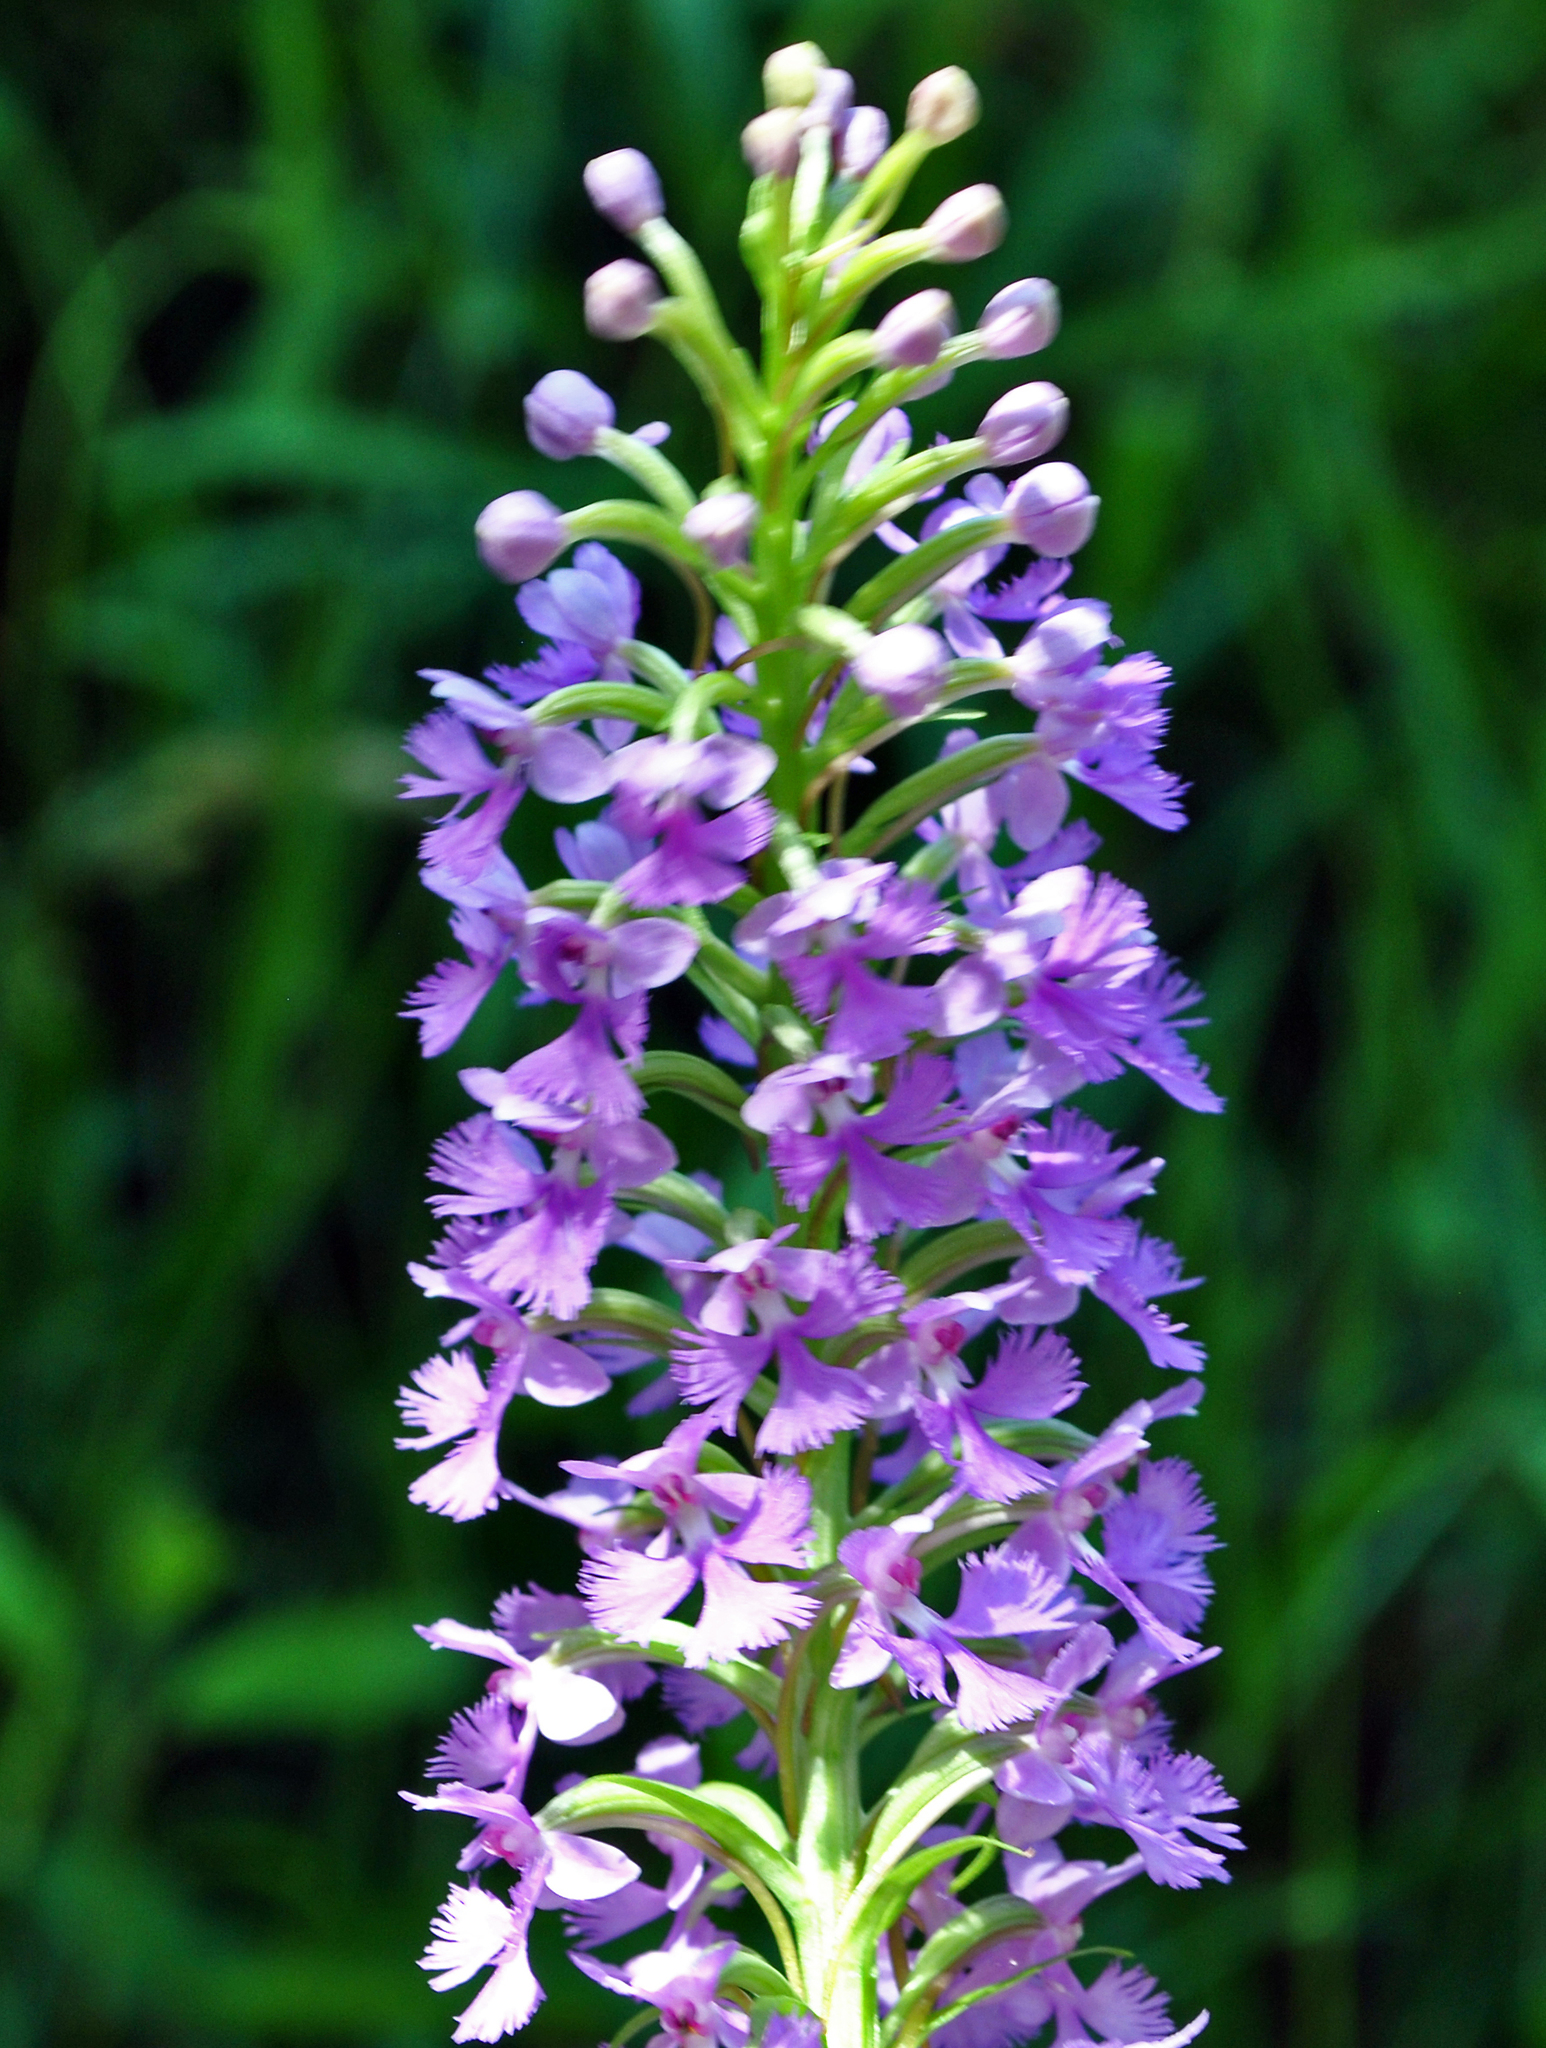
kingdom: Plantae
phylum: Tracheophyta
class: Liliopsida
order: Asparagales
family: Orchidaceae
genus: Platanthera
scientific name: Platanthera psycodes
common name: Lesser purple fringed orchid
